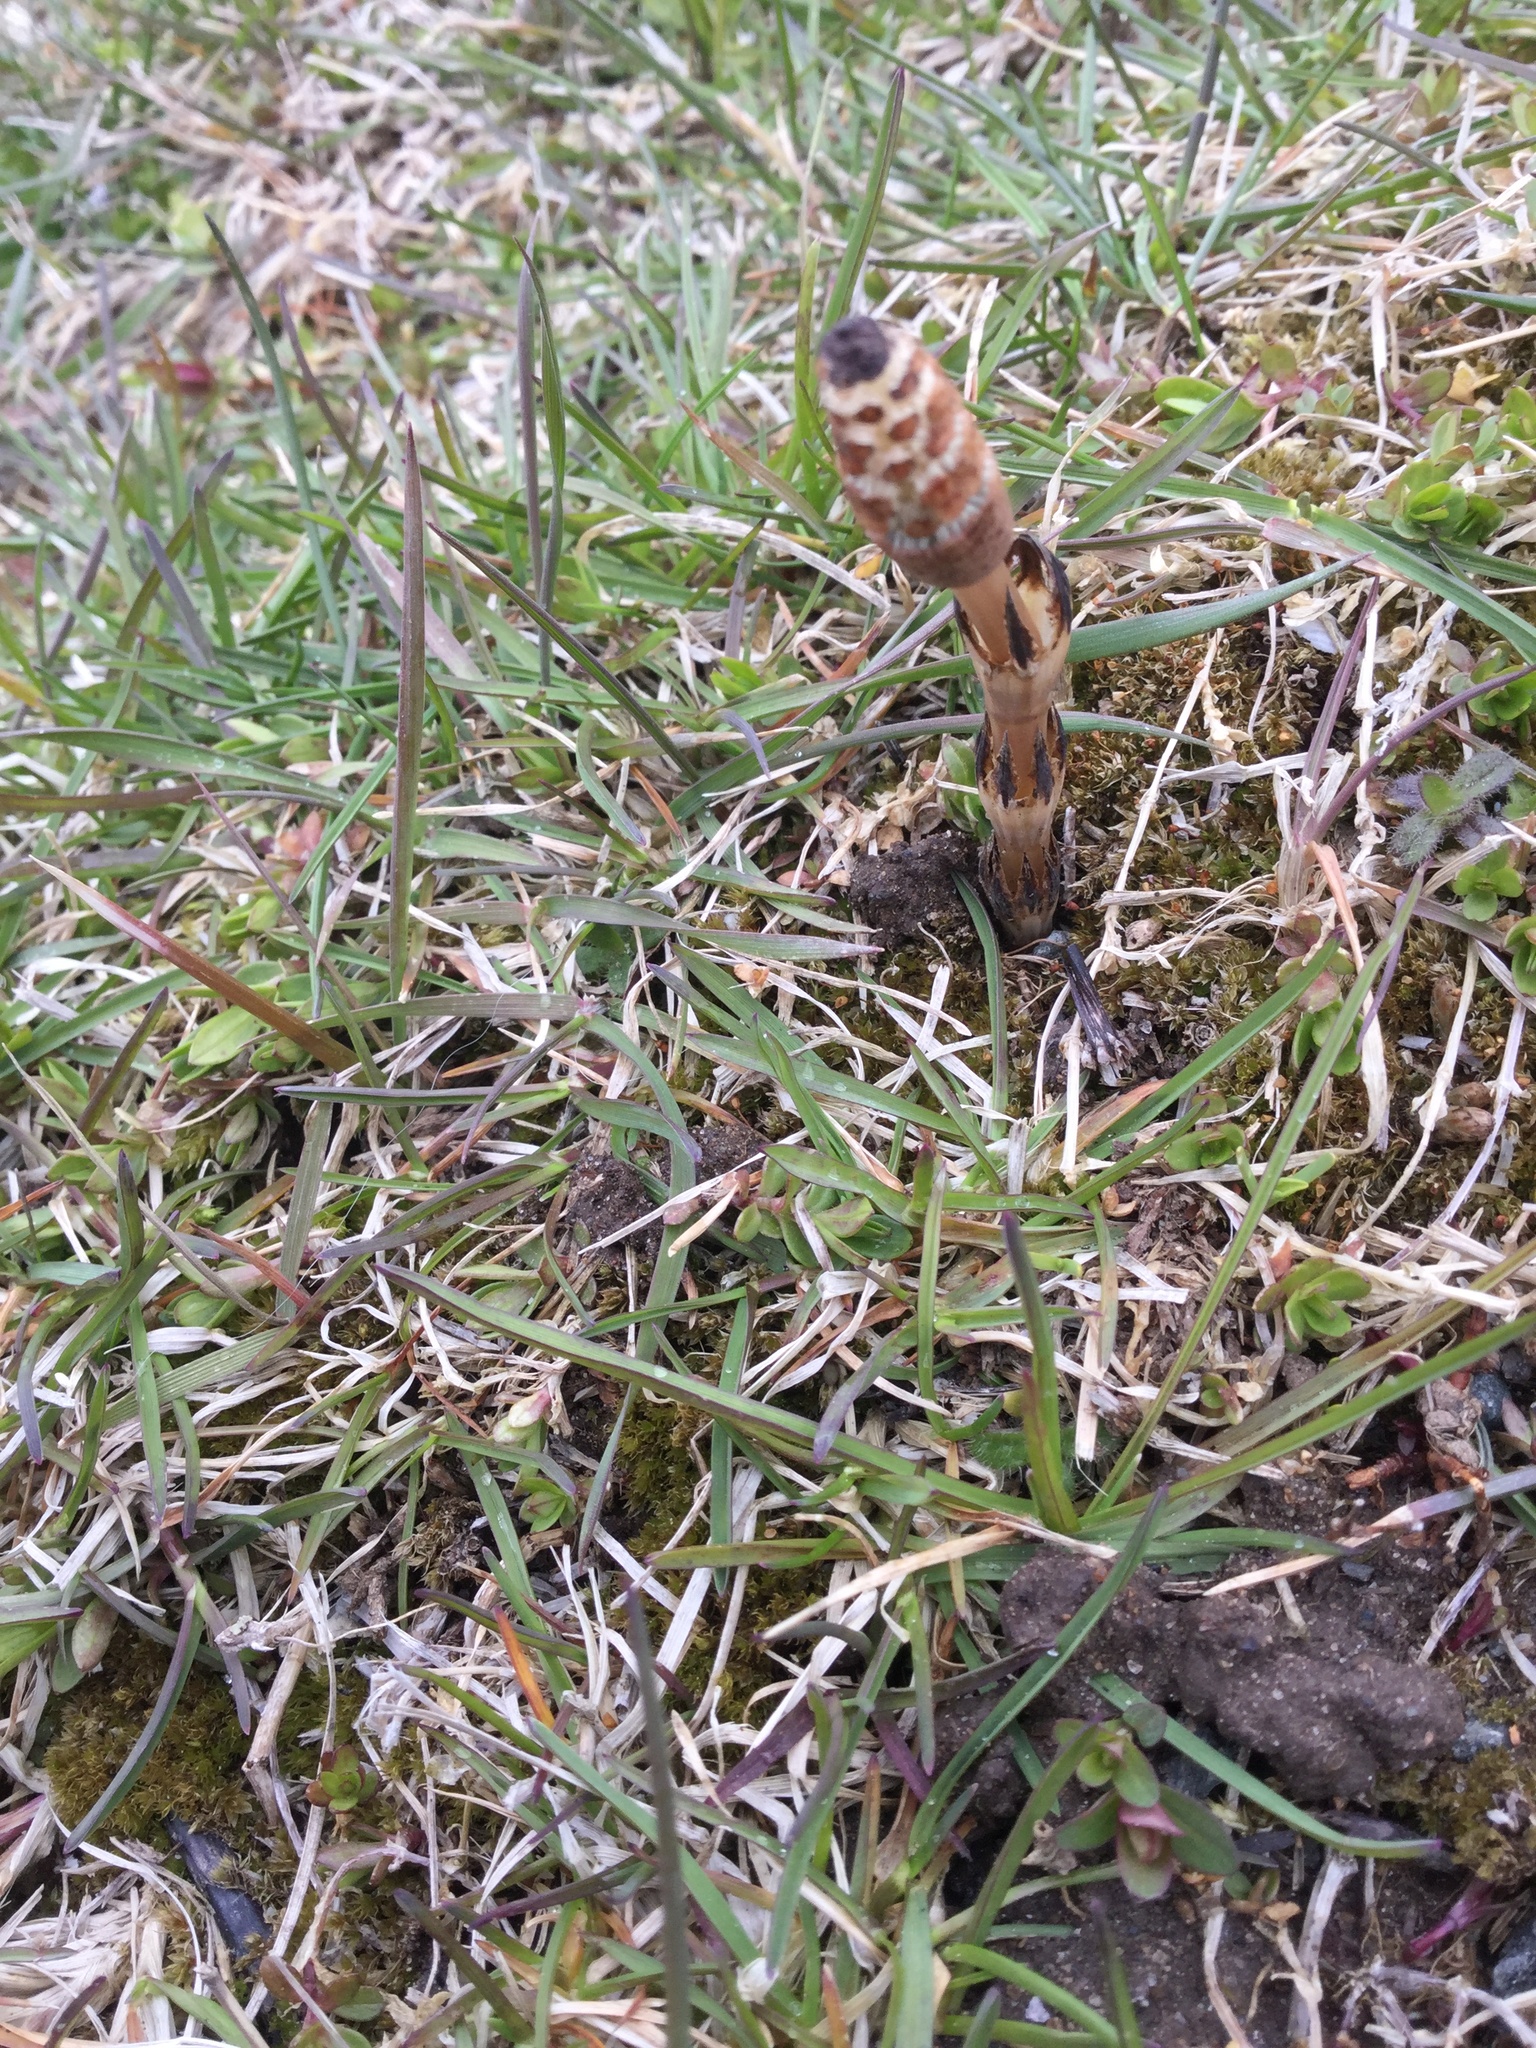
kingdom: Plantae
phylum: Tracheophyta
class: Polypodiopsida
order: Equisetales
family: Equisetaceae
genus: Equisetum
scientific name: Equisetum arvense
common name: Field horsetail
